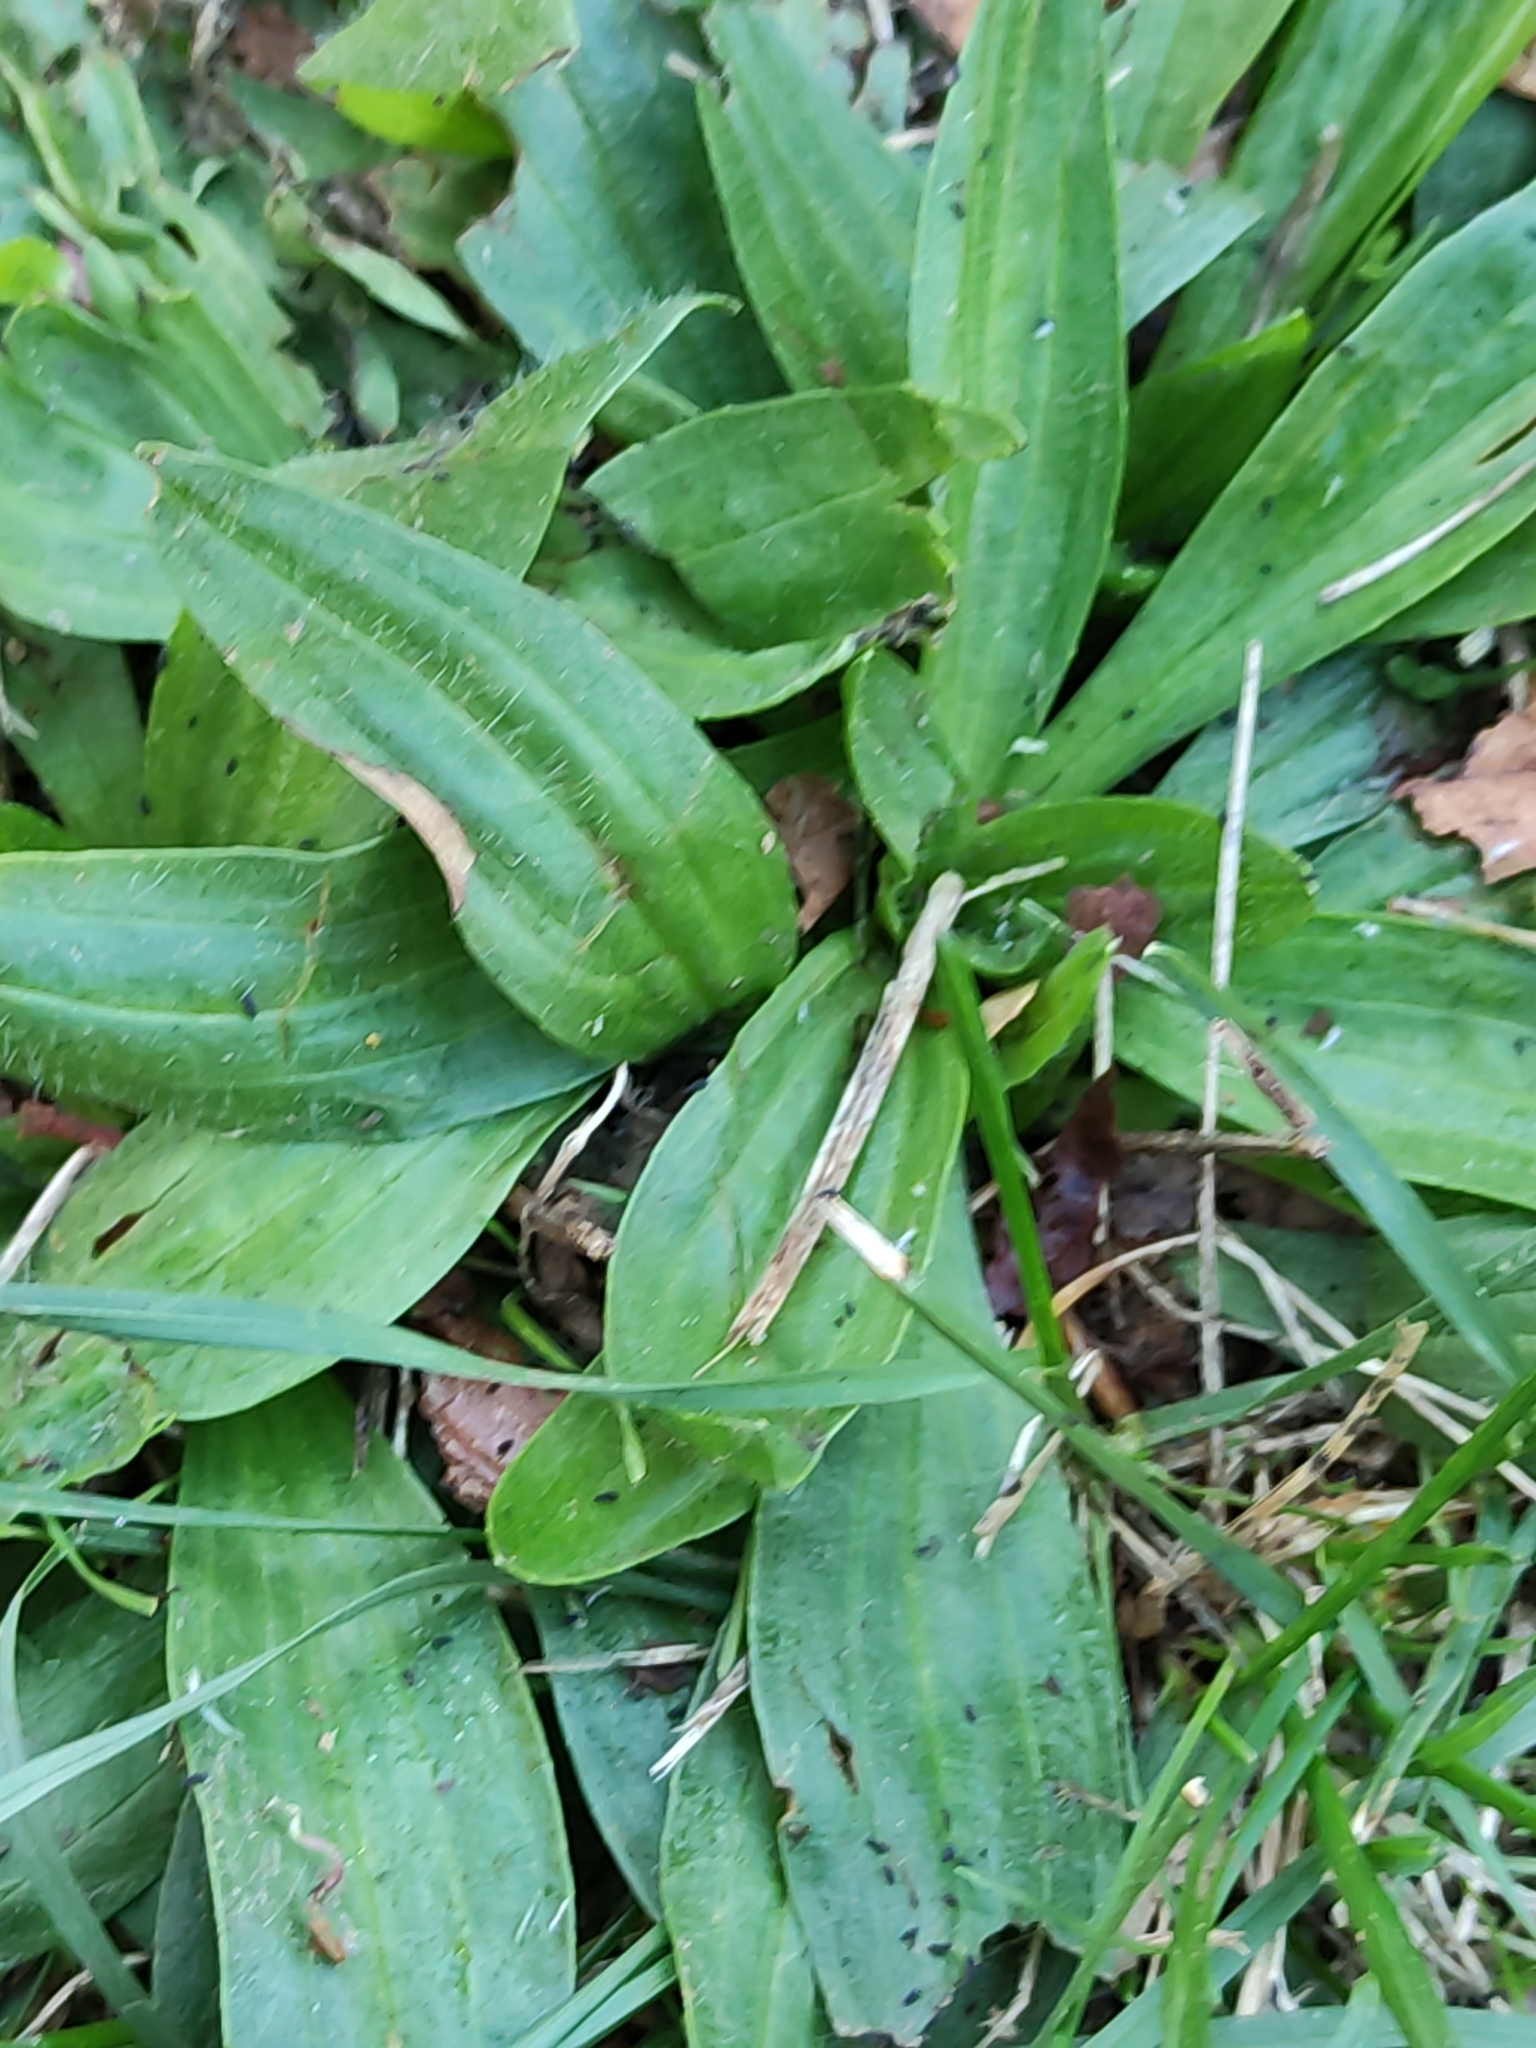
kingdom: Plantae
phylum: Tracheophyta
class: Magnoliopsida
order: Lamiales
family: Plantaginaceae
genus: Plantago
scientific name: Plantago lanceolata
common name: Ribwort plantain
